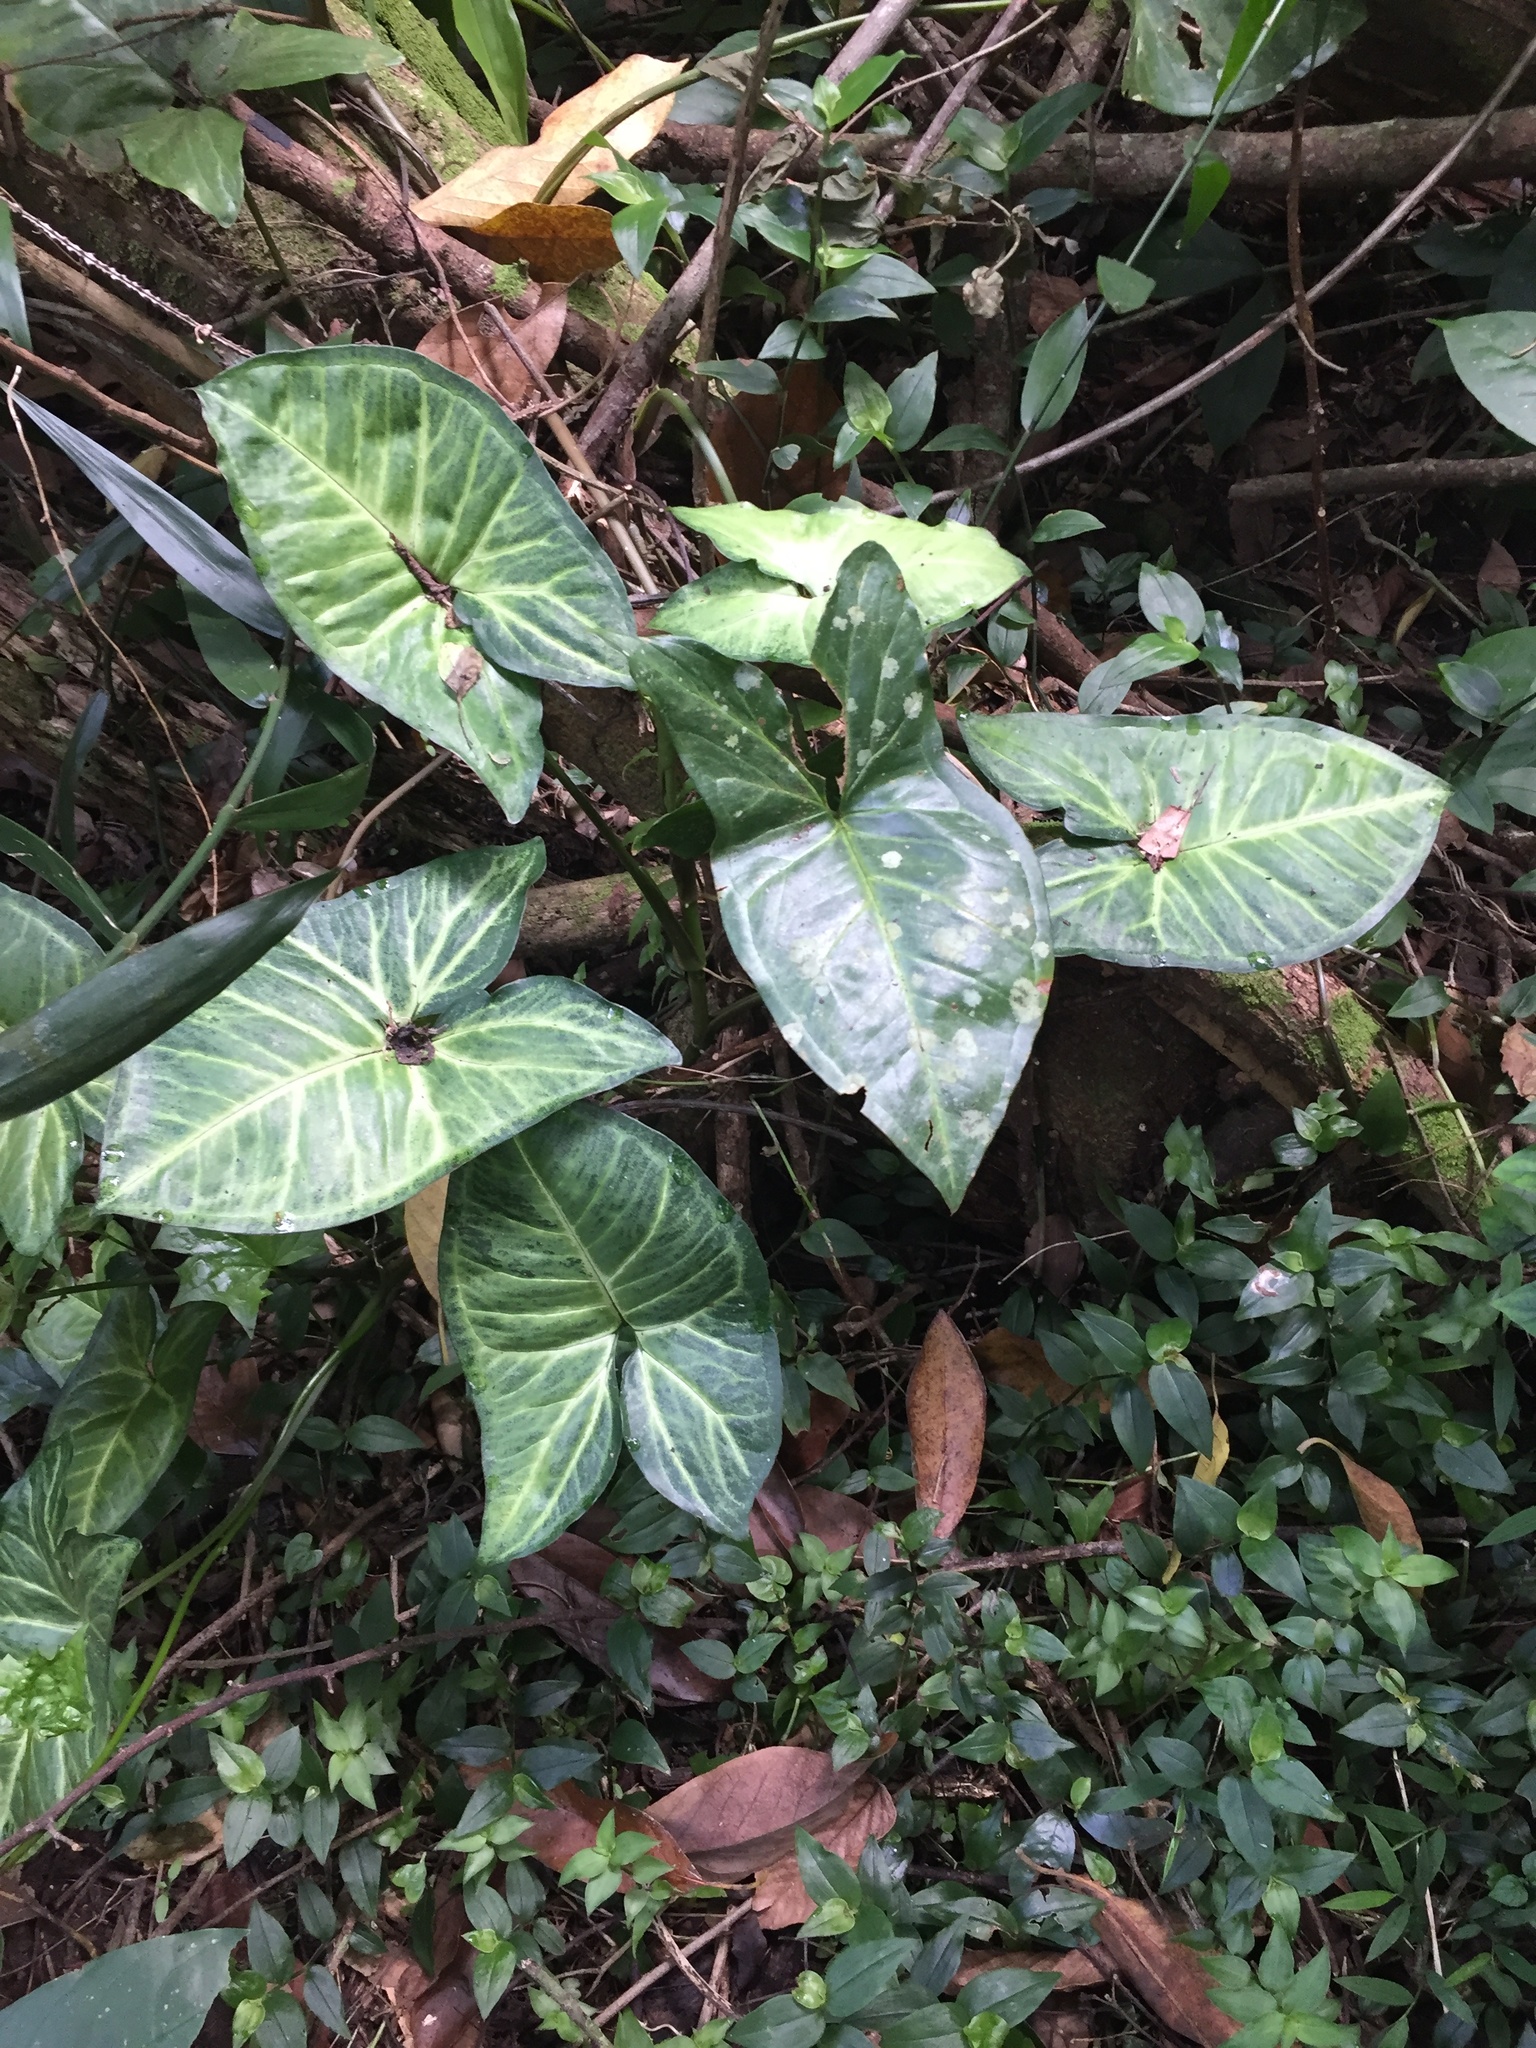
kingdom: Plantae
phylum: Tracheophyta
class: Liliopsida
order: Alismatales
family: Araceae
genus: Syngonium
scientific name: Syngonium podophyllum
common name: American evergreen
